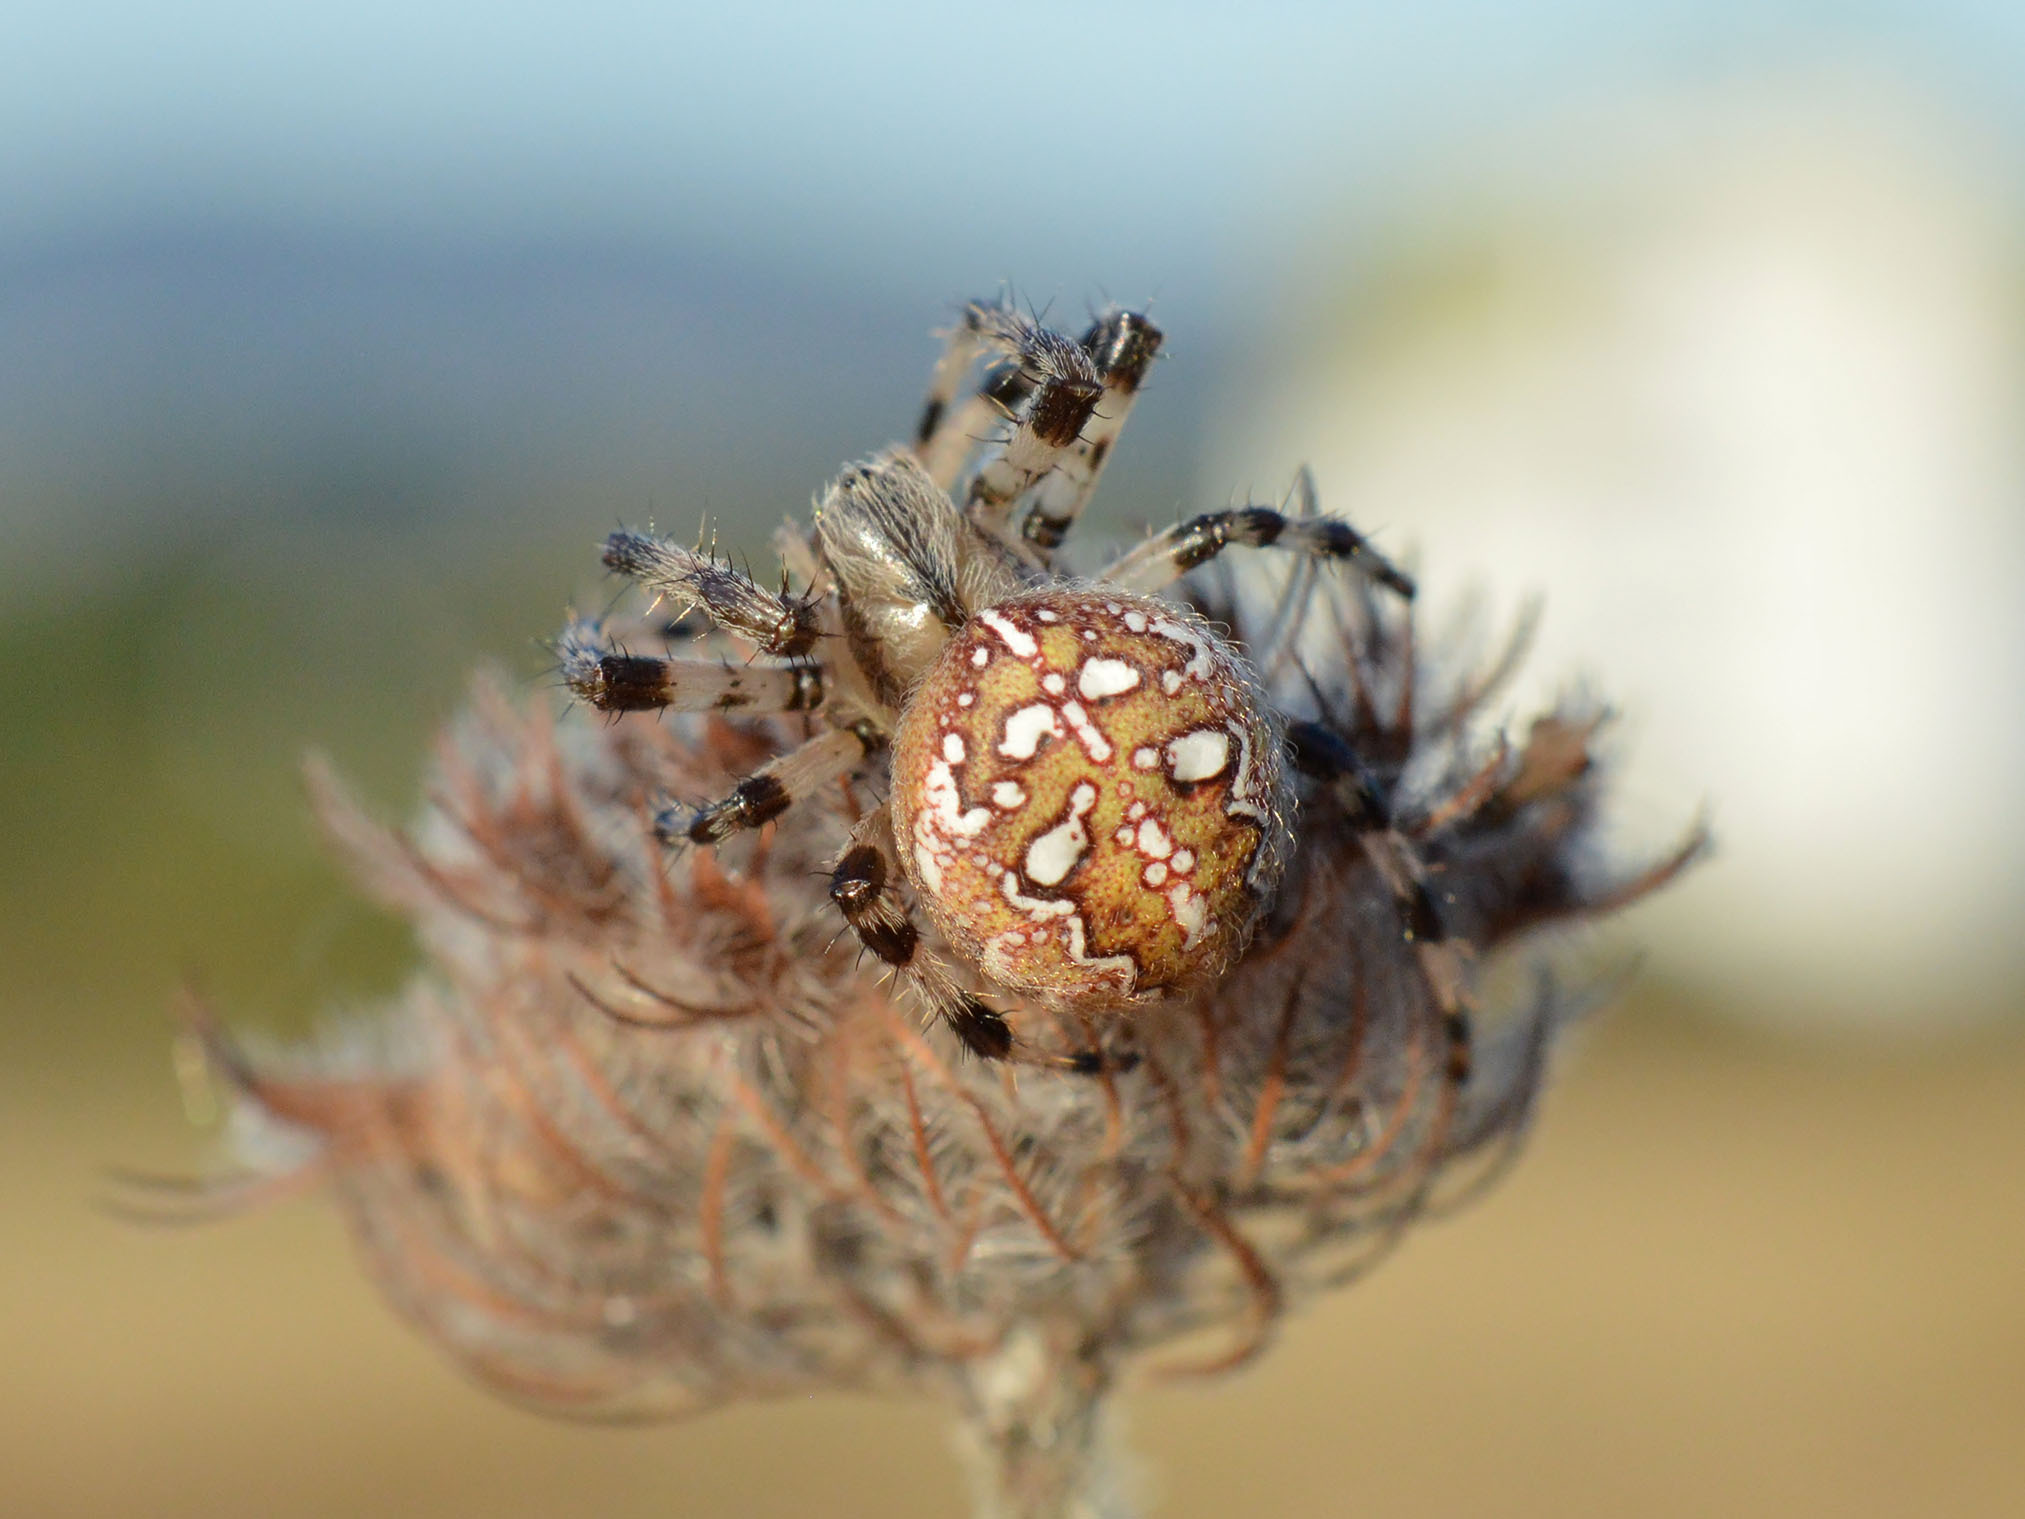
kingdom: Animalia
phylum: Arthropoda
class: Arachnida
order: Araneae
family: Araneidae
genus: Araneus
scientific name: Araneus quadratus
